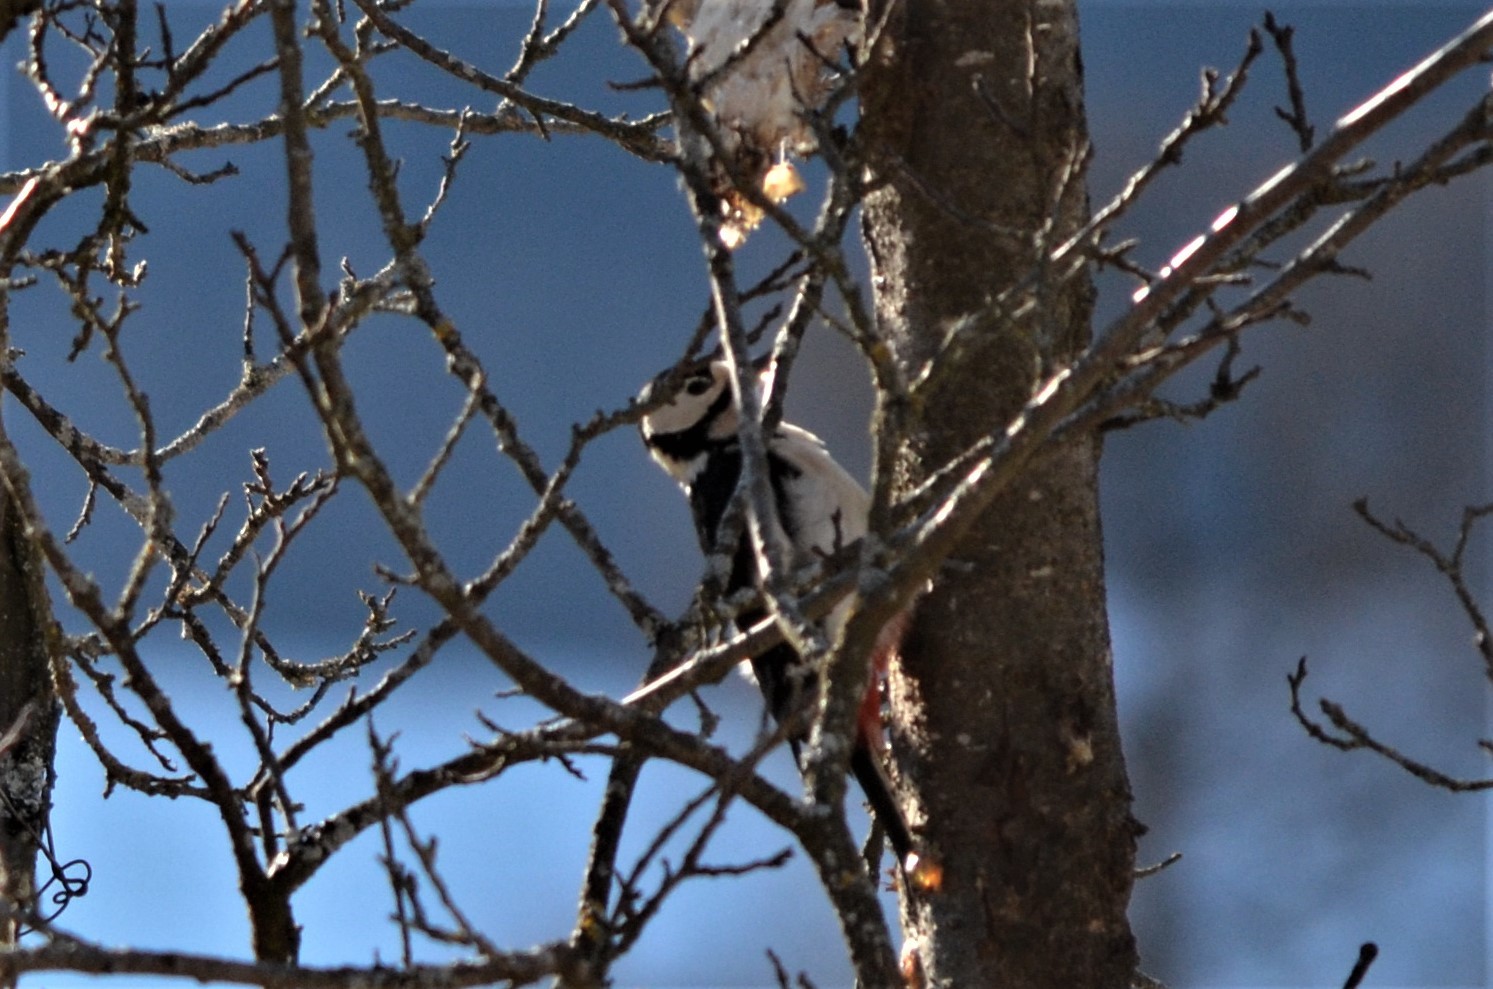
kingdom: Animalia
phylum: Chordata
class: Aves
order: Piciformes
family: Picidae
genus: Dendrocopos
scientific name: Dendrocopos major
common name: Great spotted woodpecker
